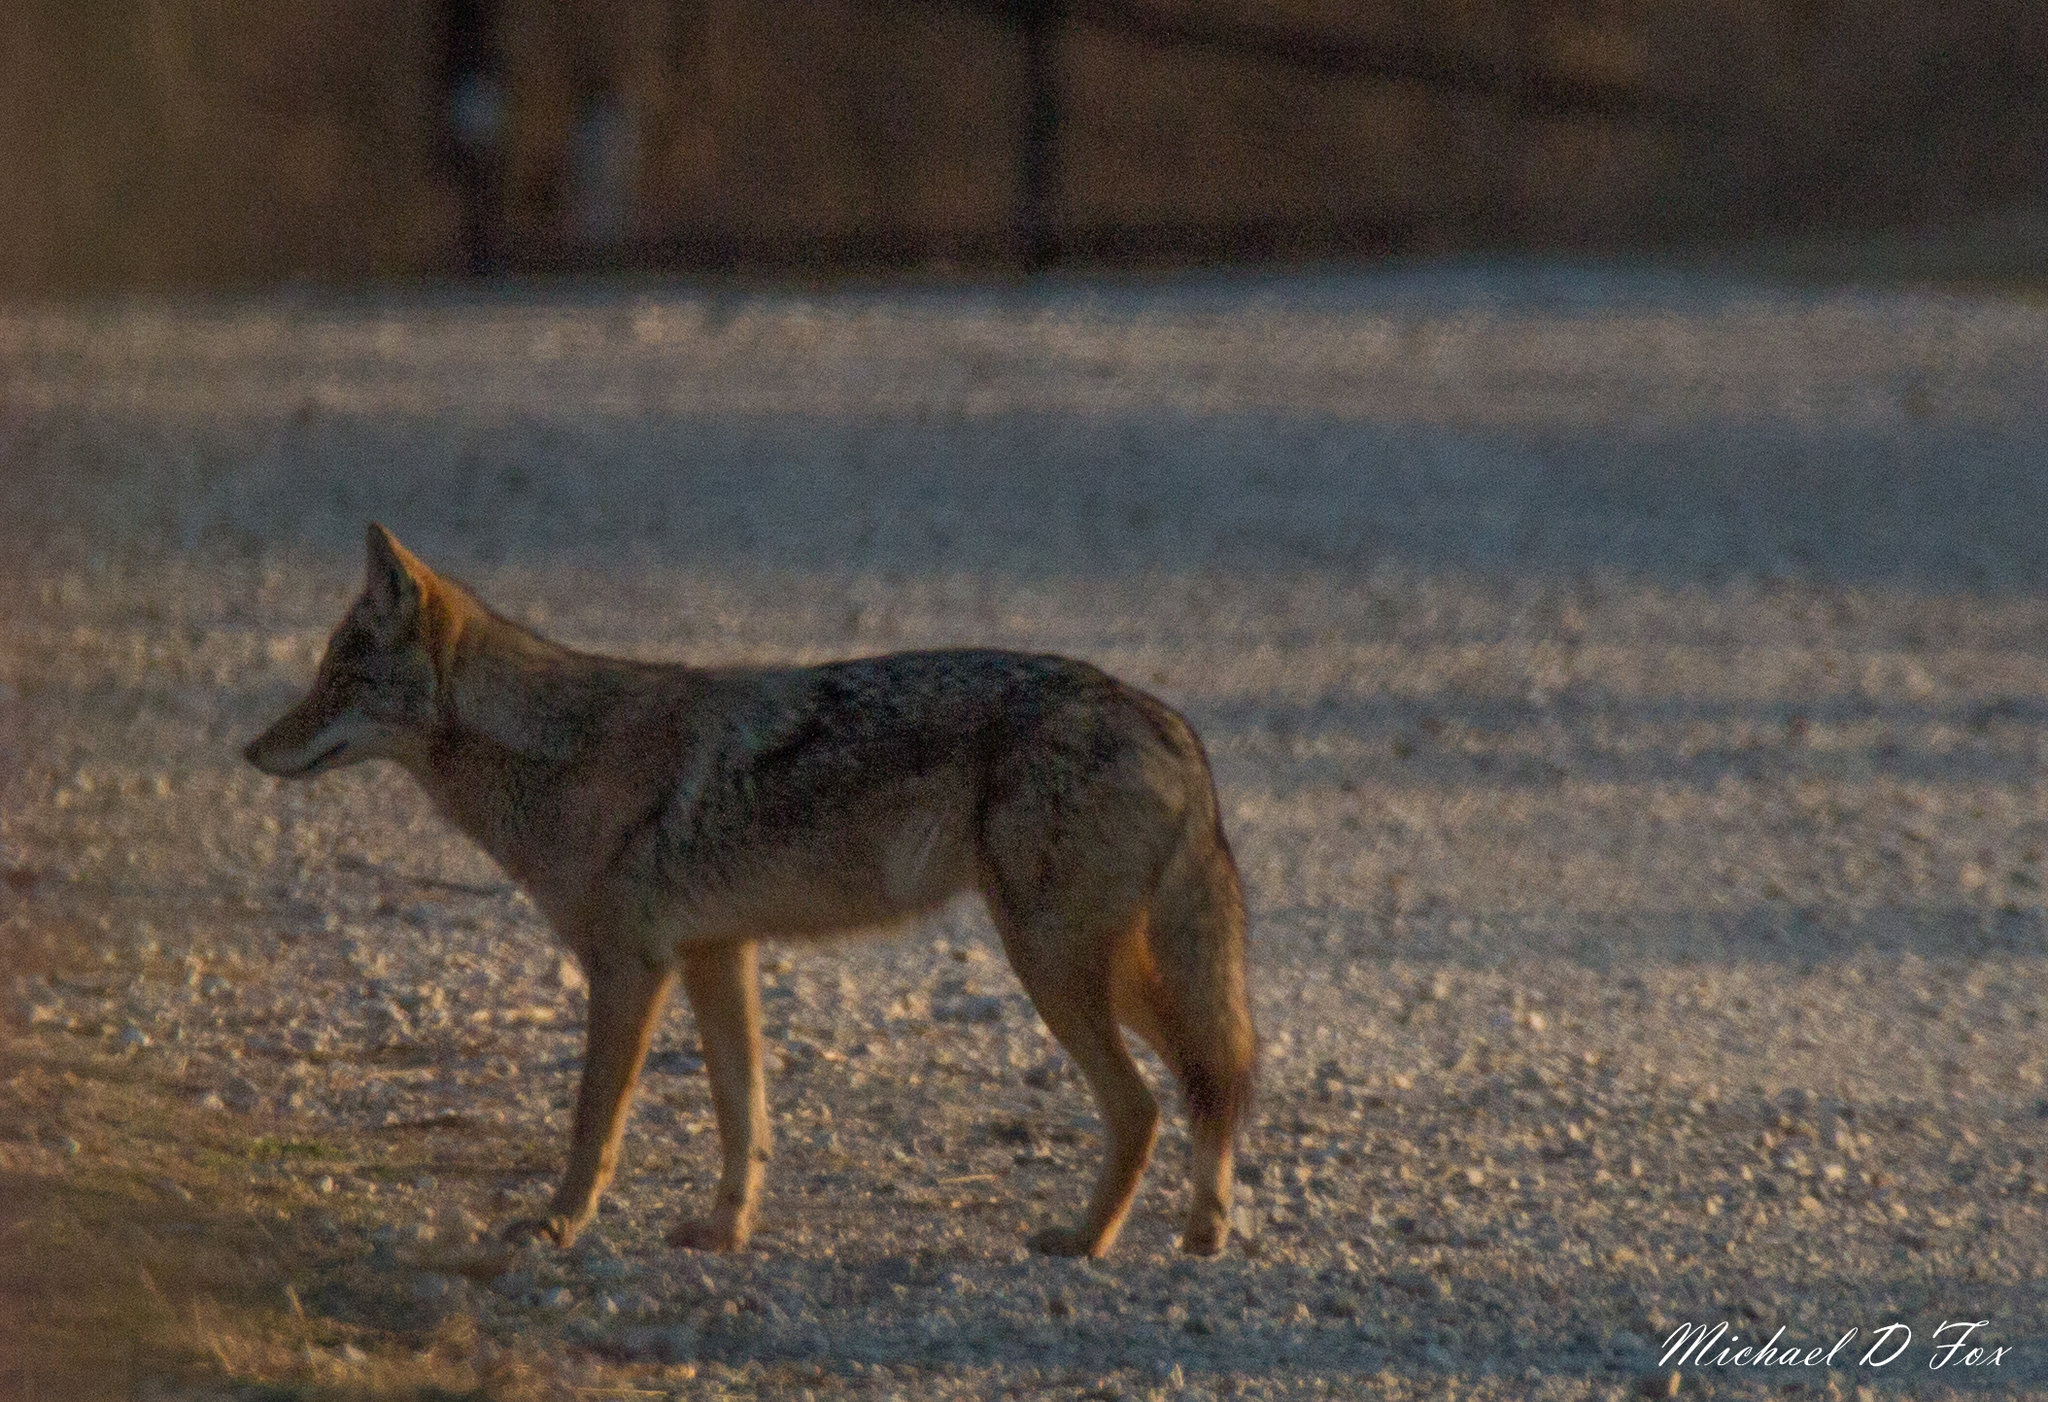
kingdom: Animalia
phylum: Chordata
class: Mammalia
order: Carnivora
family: Canidae
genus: Canis
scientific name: Canis latrans
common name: Coyote
